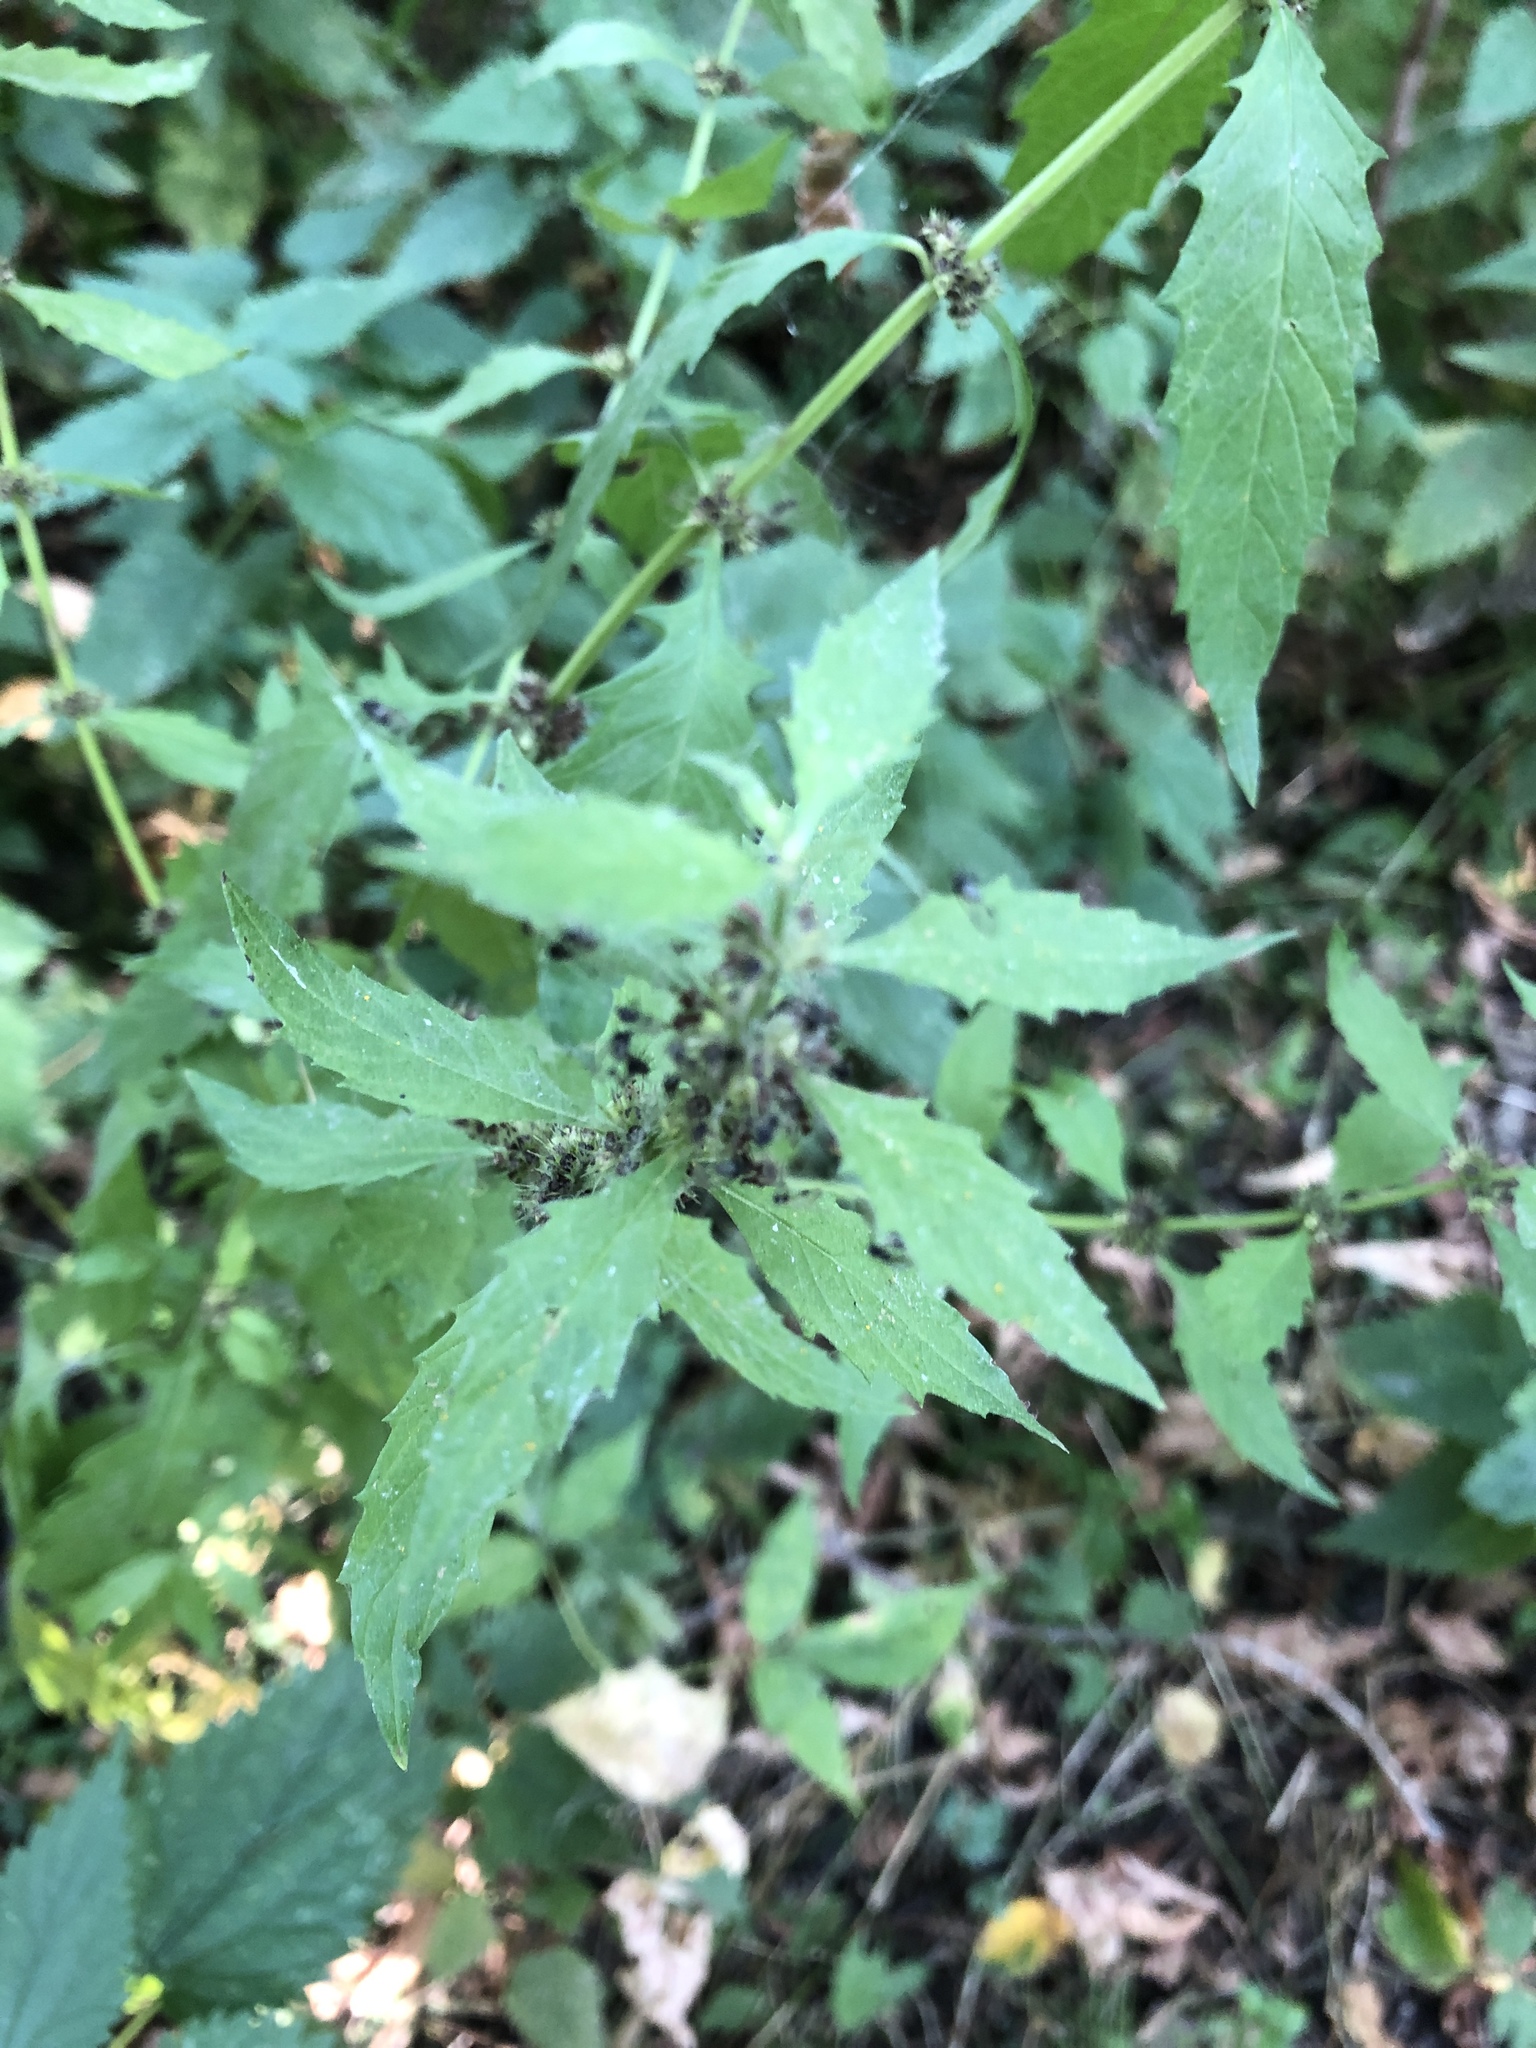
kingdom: Plantae
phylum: Tracheophyta
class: Magnoliopsida
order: Lamiales
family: Lamiaceae
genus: Lycopus
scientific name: Lycopus europaeus
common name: European bugleweed
